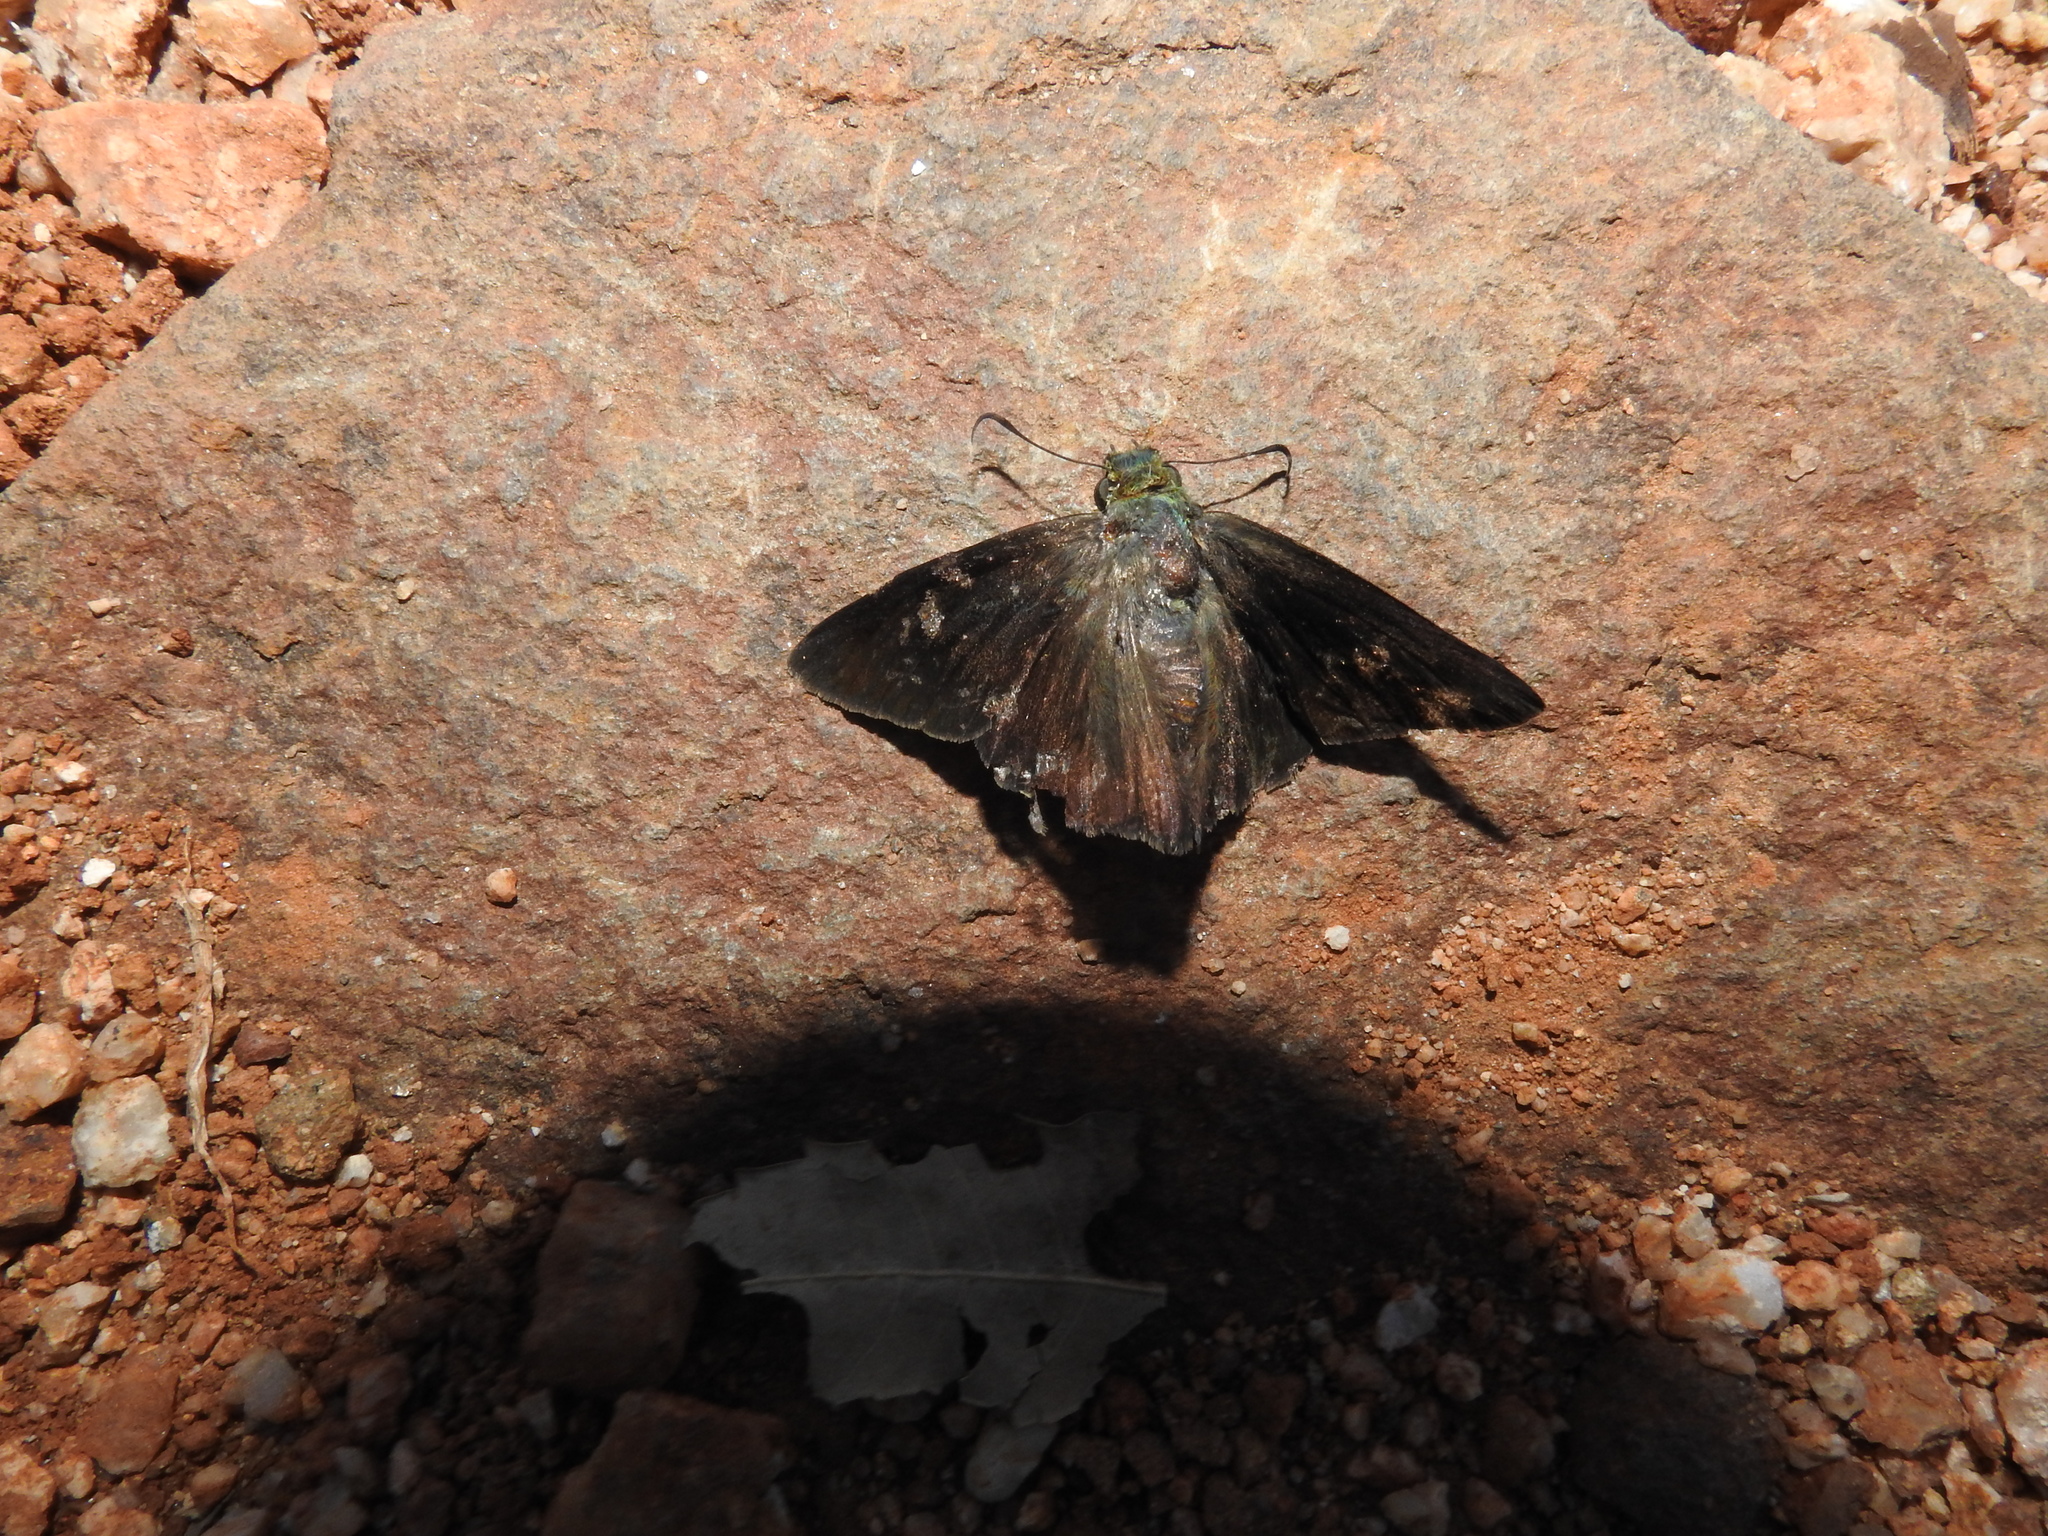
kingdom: Animalia
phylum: Arthropoda
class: Insecta
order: Lepidoptera
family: Hesperiidae
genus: Hasora
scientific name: Hasora chromus
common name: Common banded awl
